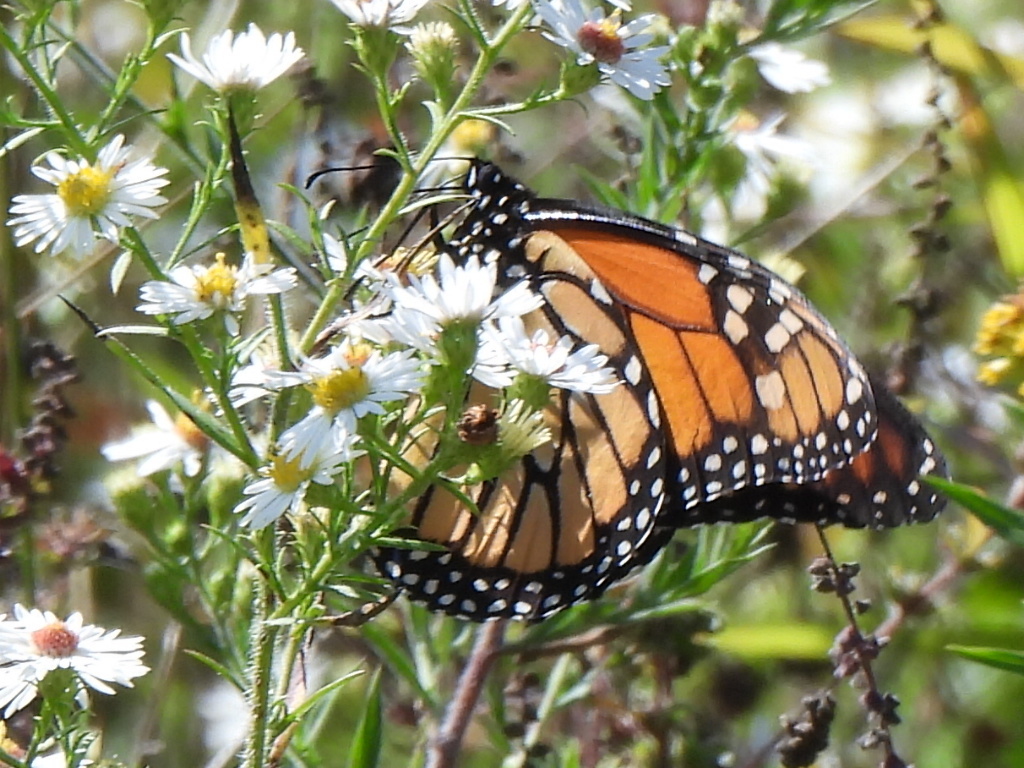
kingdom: Animalia
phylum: Arthropoda
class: Insecta
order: Lepidoptera
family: Nymphalidae
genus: Danaus
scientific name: Danaus plexippus
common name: Monarch
